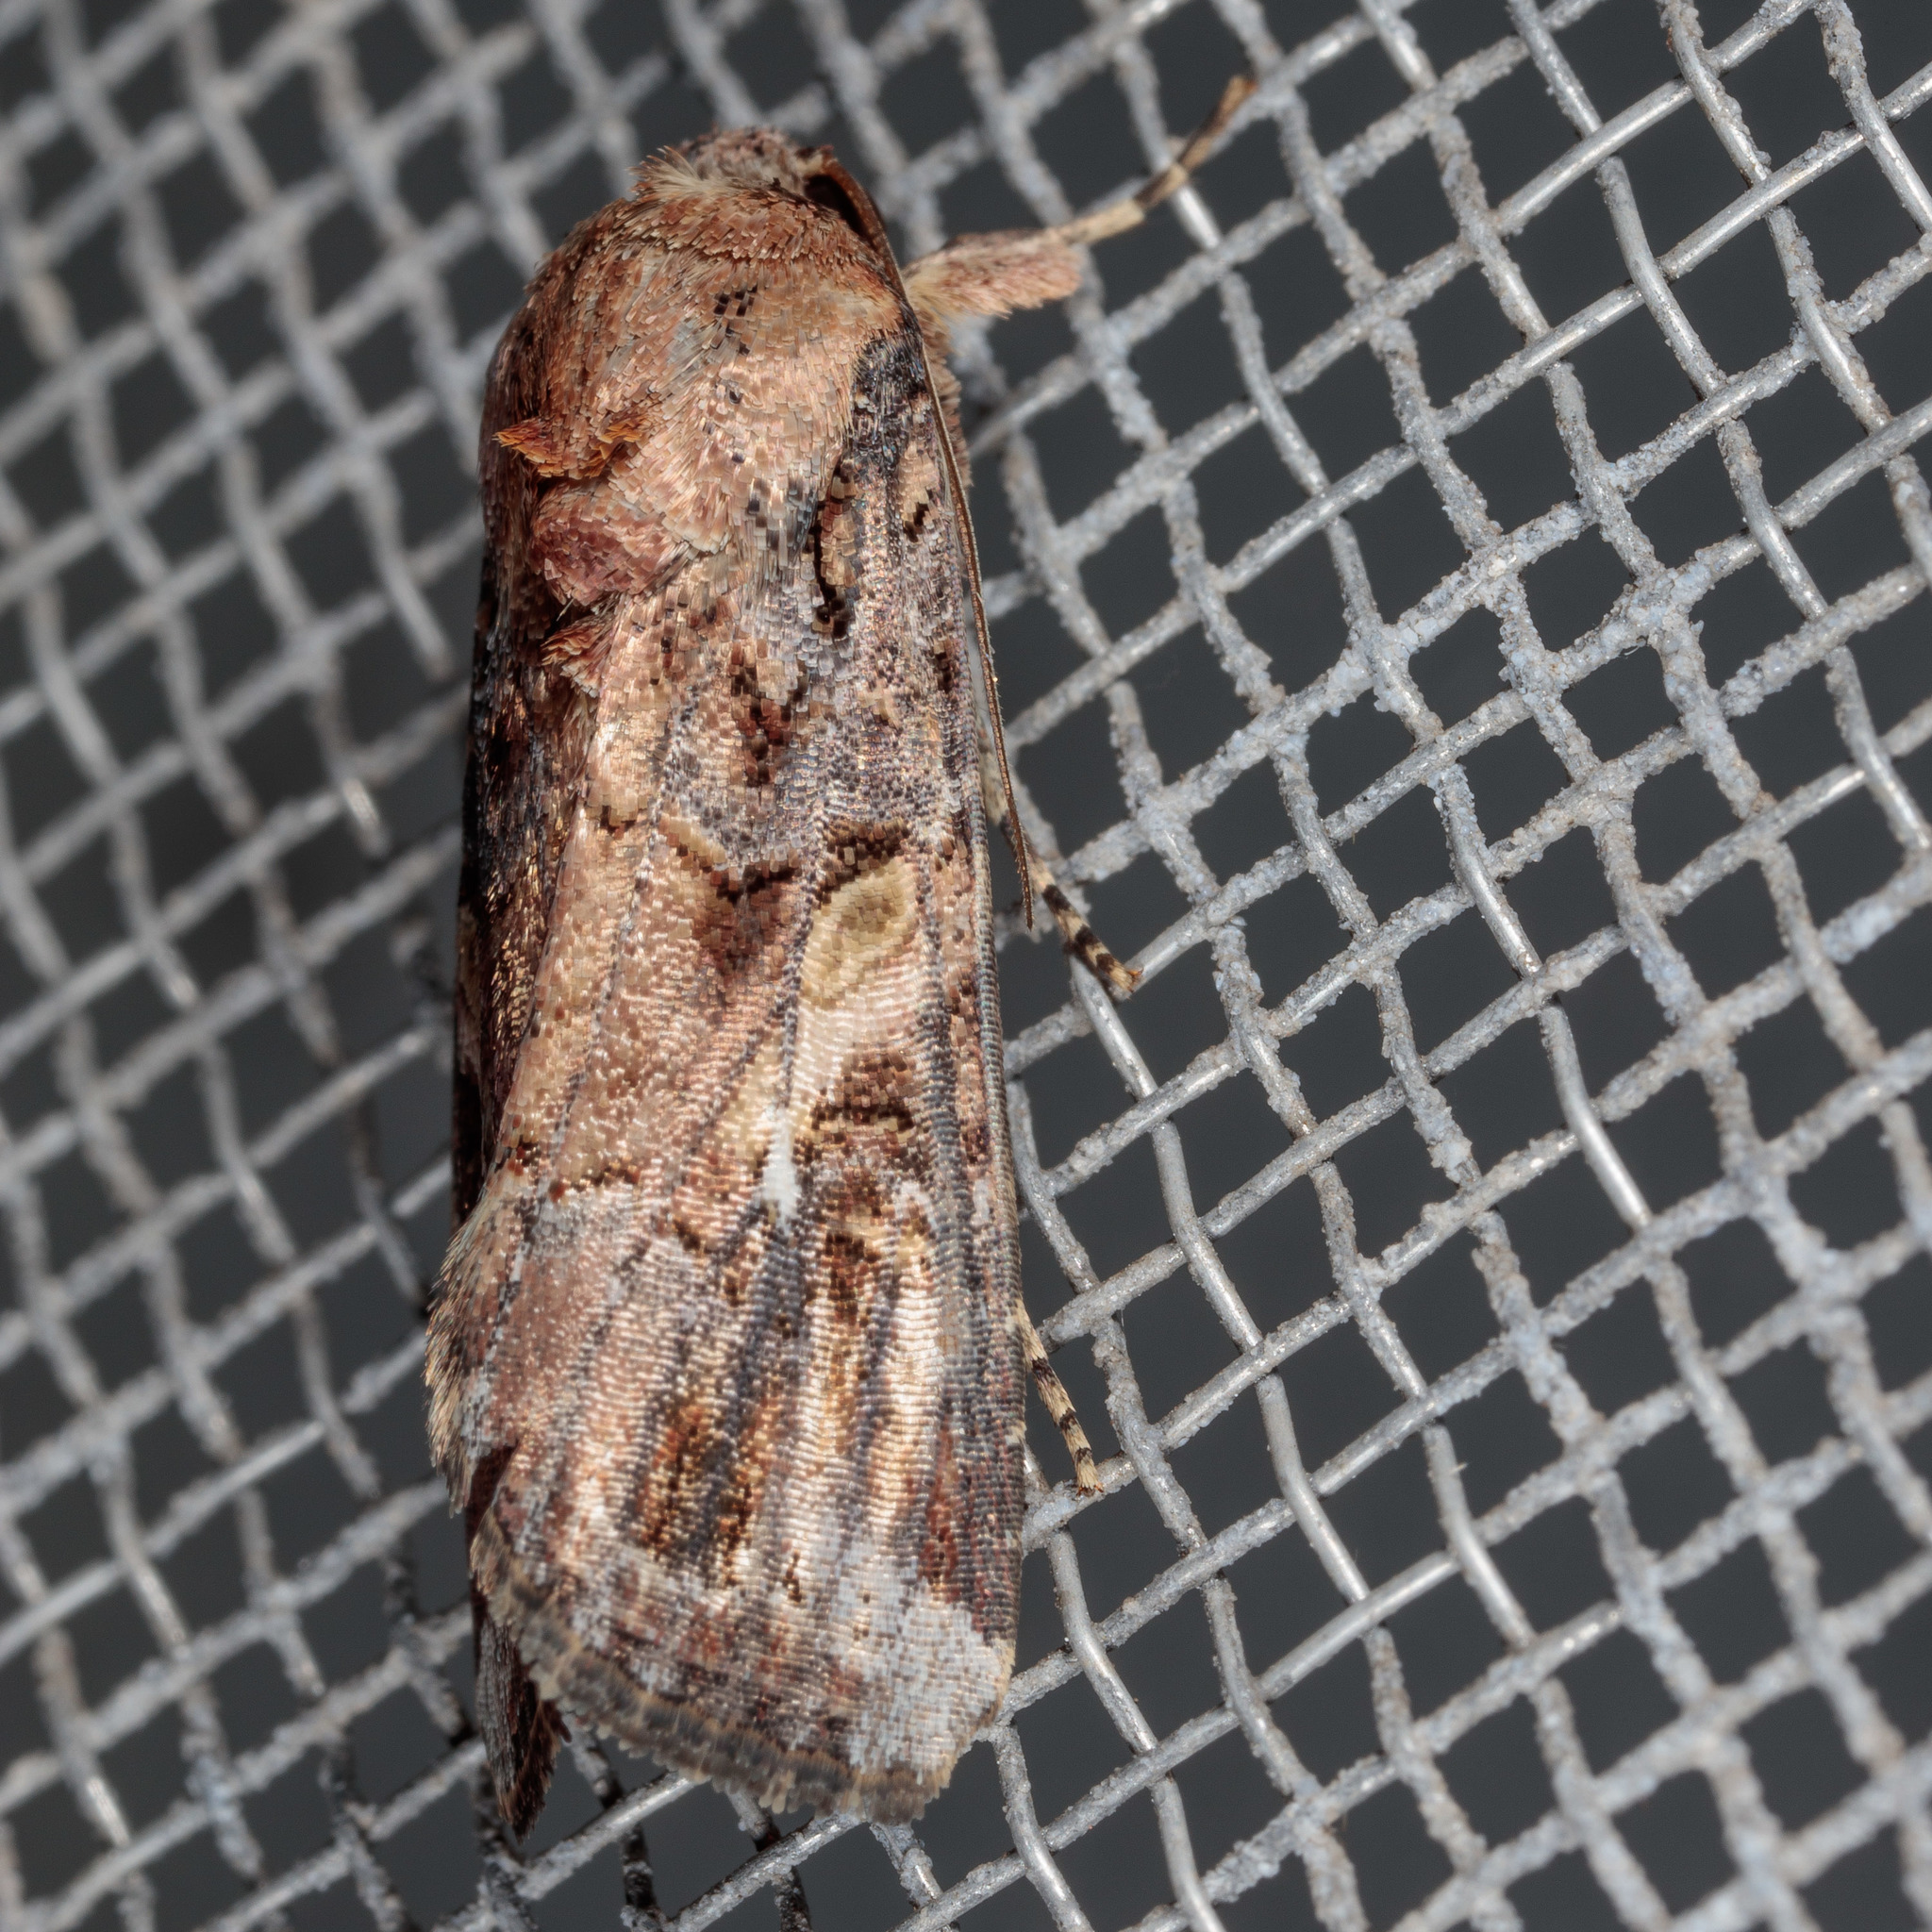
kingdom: Animalia
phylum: Arthropoda
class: Insecta
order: Lepidoptera
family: Noctuidae
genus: Spodoptera
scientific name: Spodoptera frugiperda
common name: Fall armyworm
